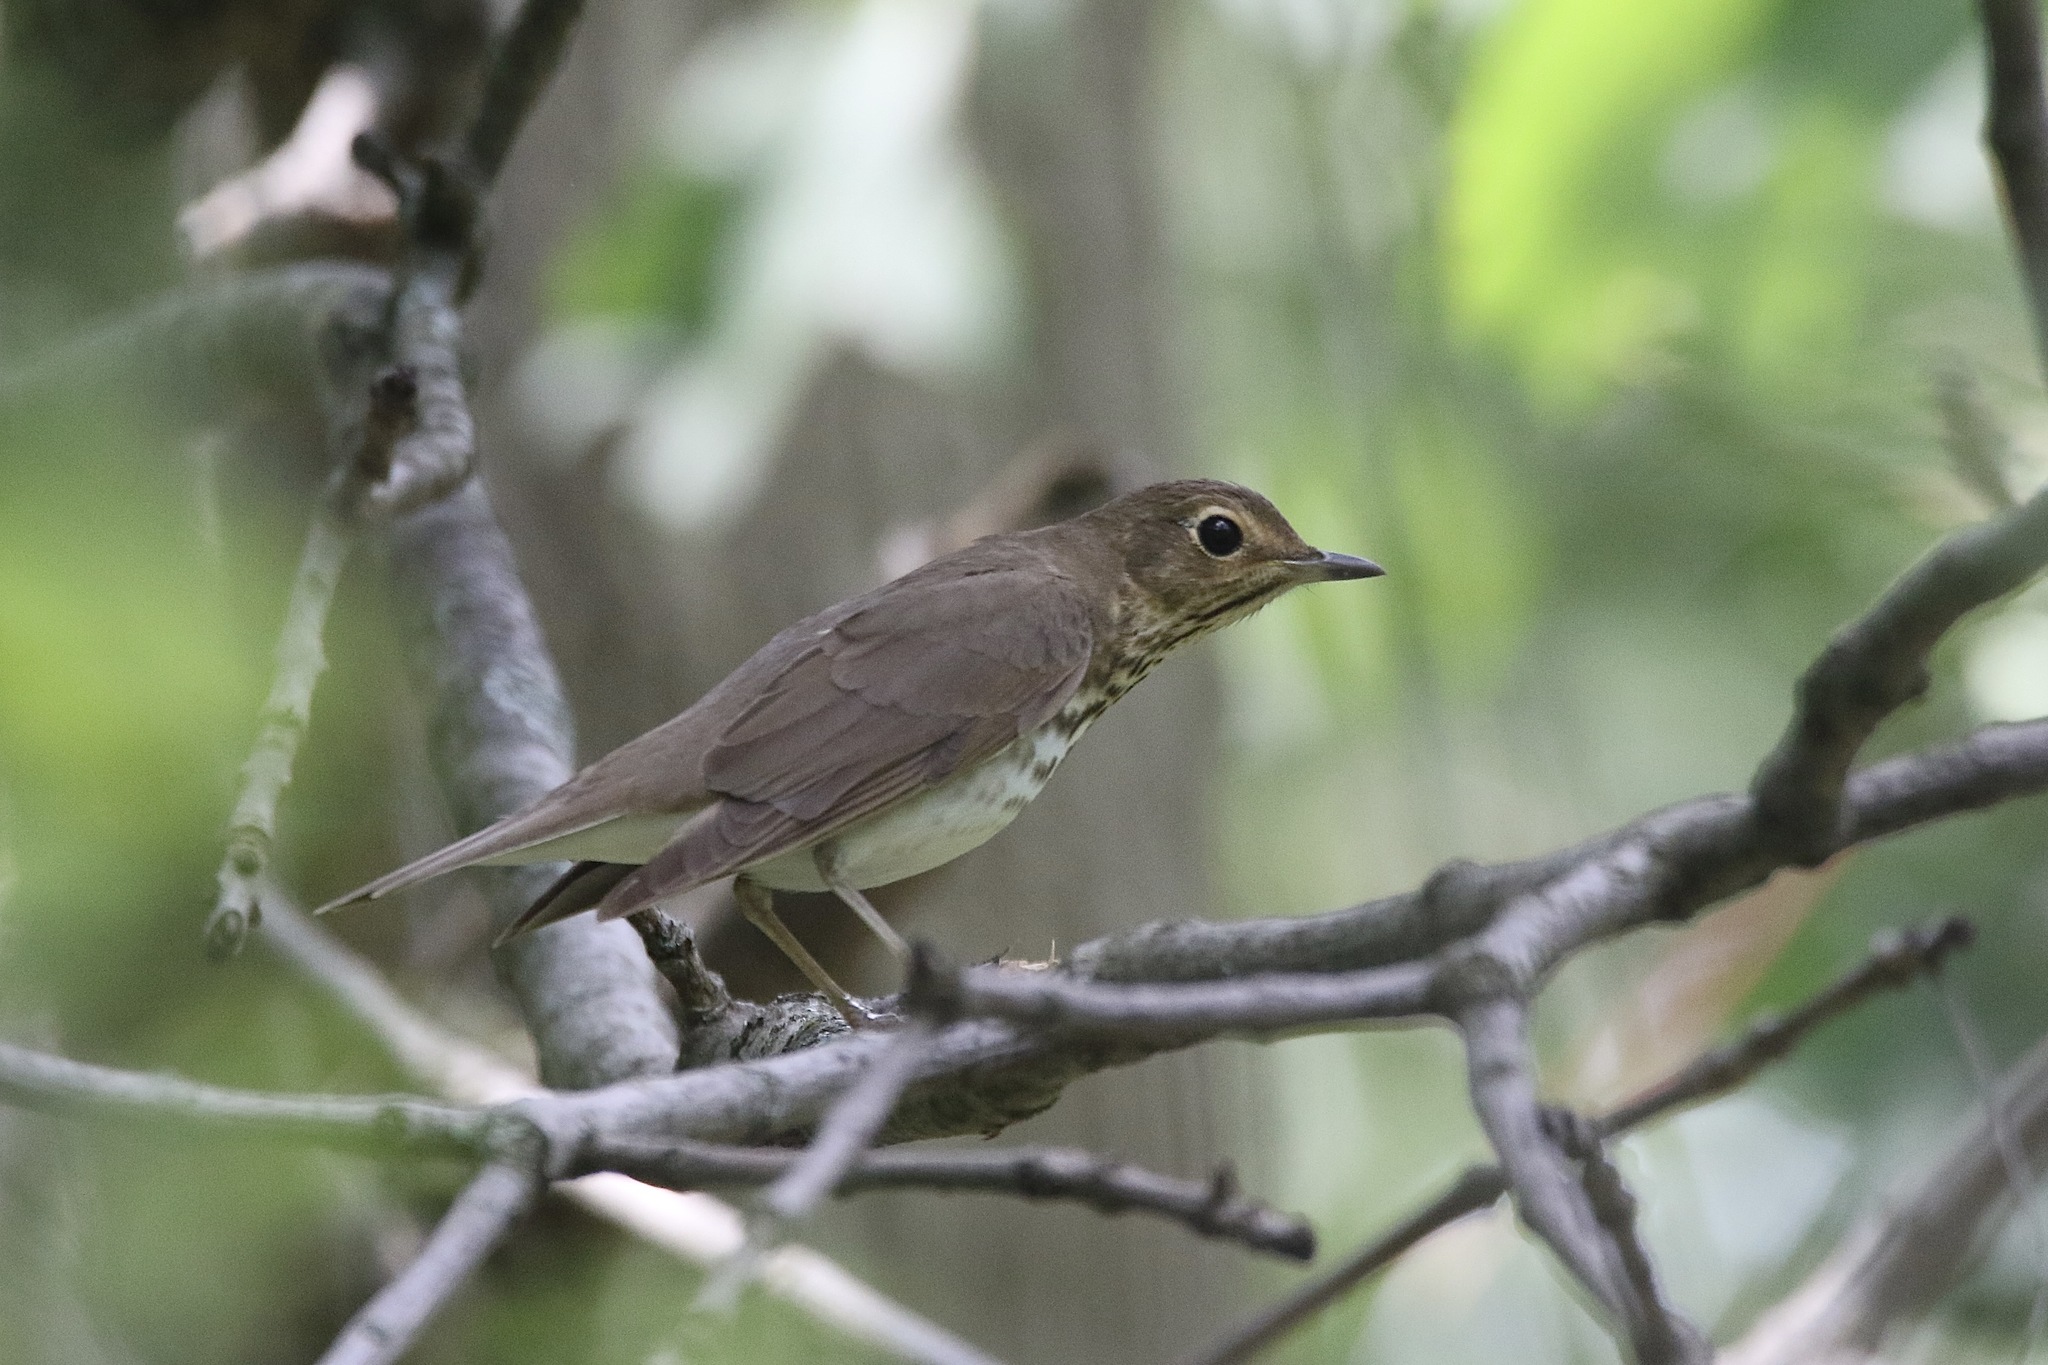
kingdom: Animalia
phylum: Chordata
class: Aves
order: Passeriformes
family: Turdidae
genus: Catharus
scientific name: Catharus ustulatus
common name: Swainson's thrush
